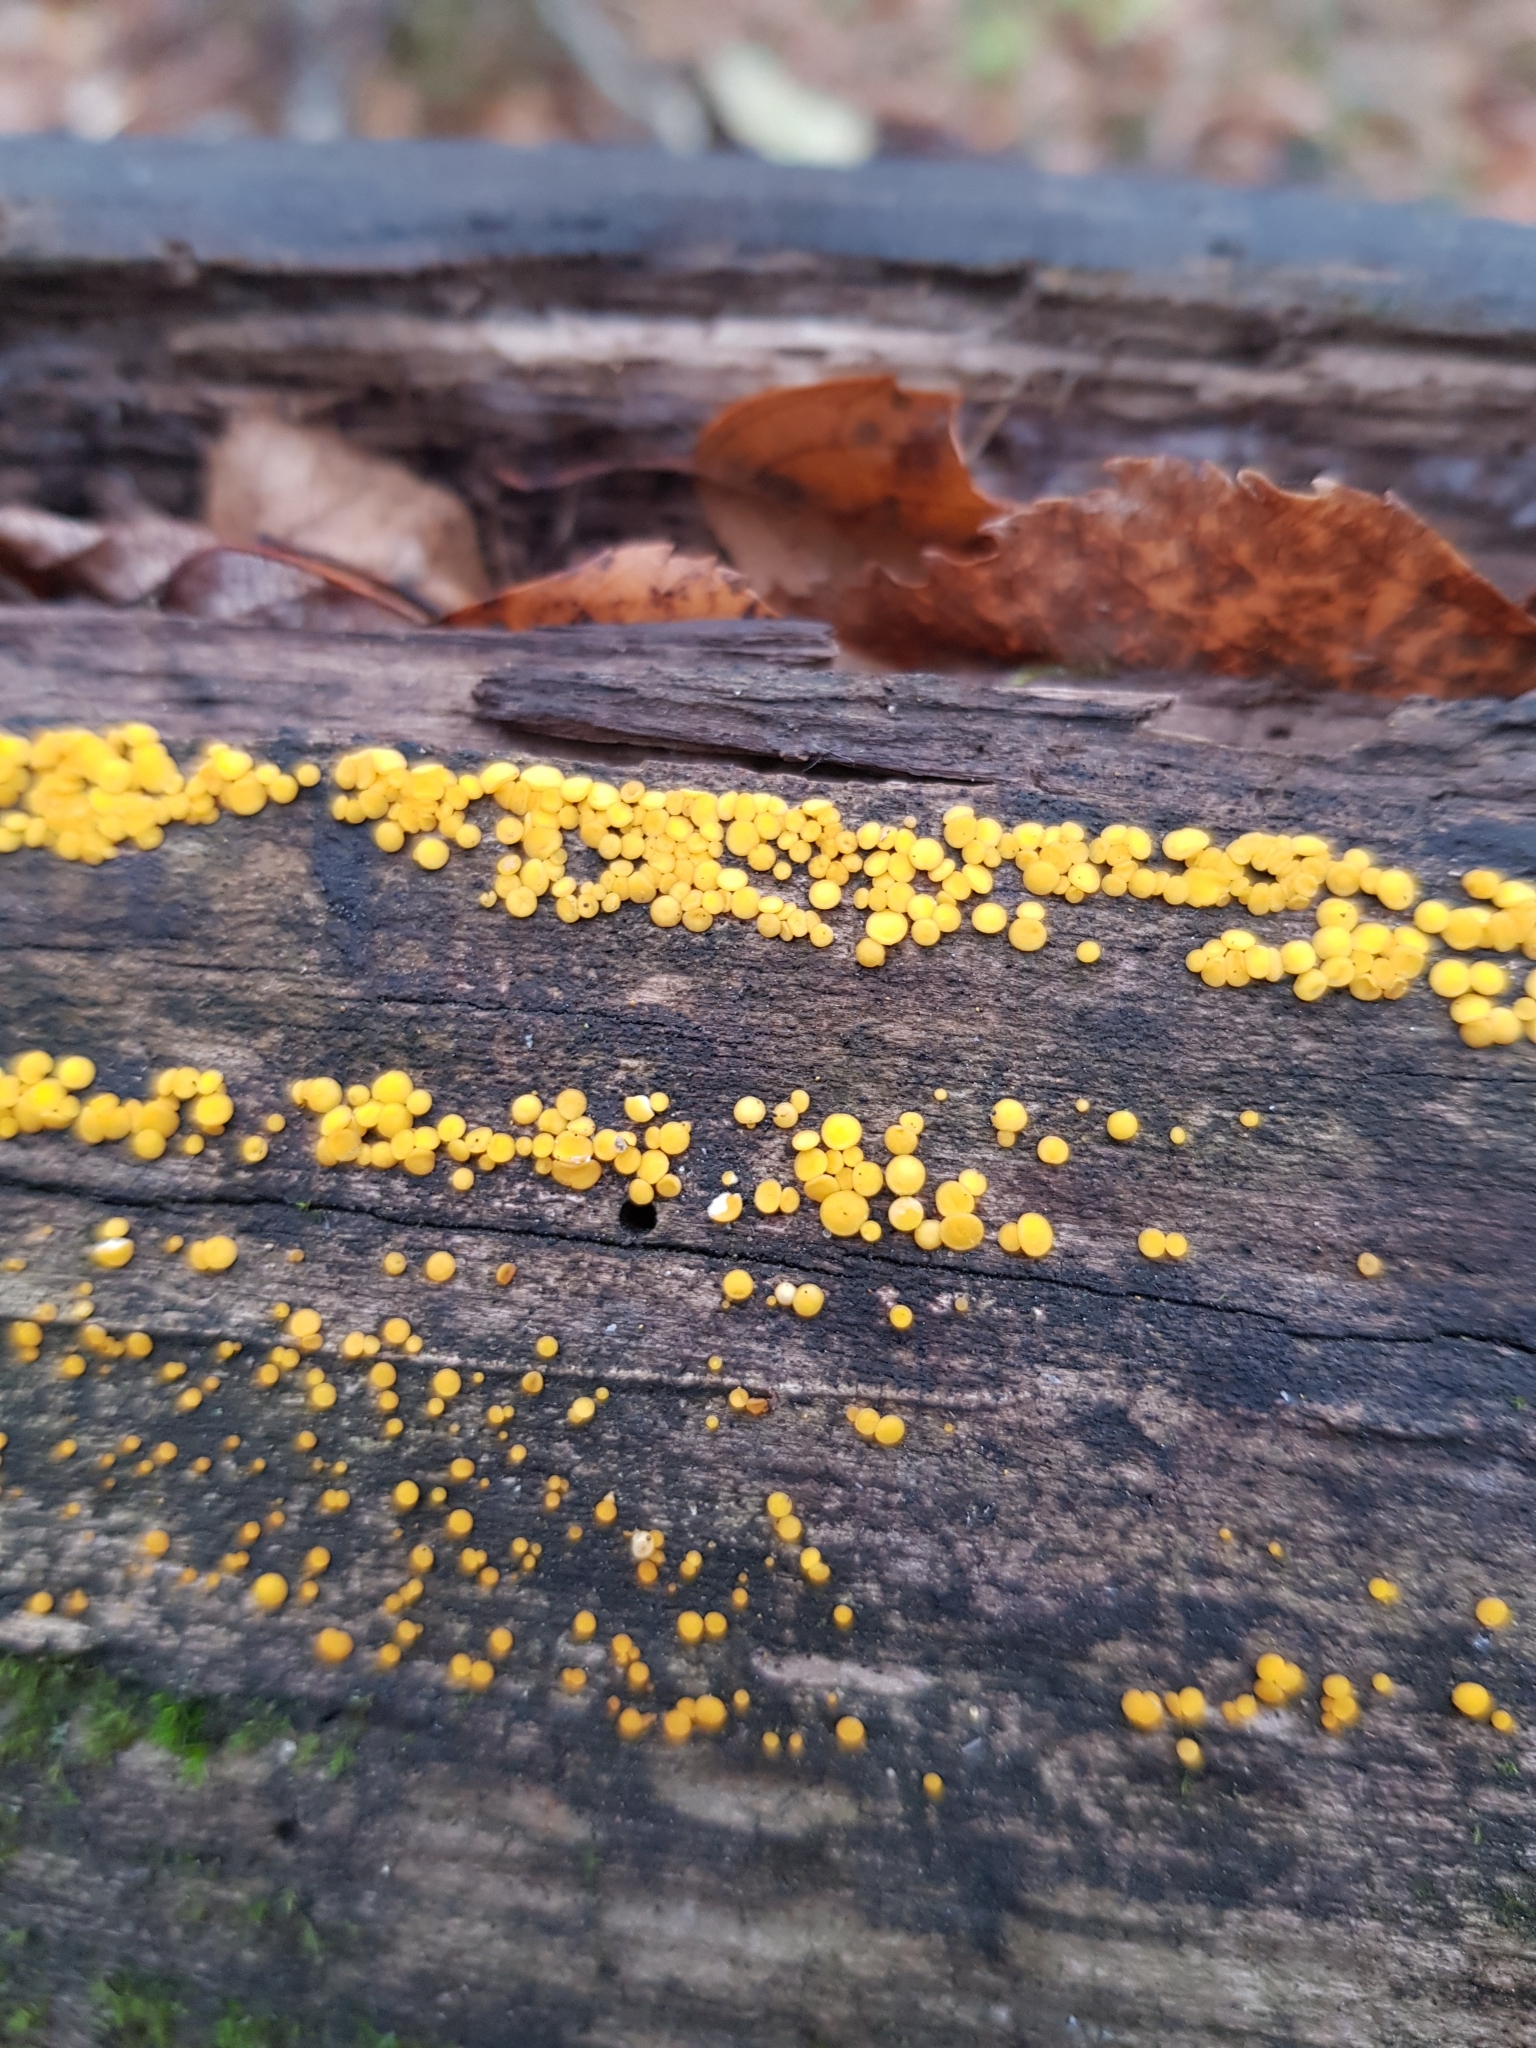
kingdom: Fungi
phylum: Ascomycota
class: Leotiomycetes
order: Helotiales
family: Pezizellaceae
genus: Calycina
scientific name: Calycina citrina
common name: Yellow fairy cups
